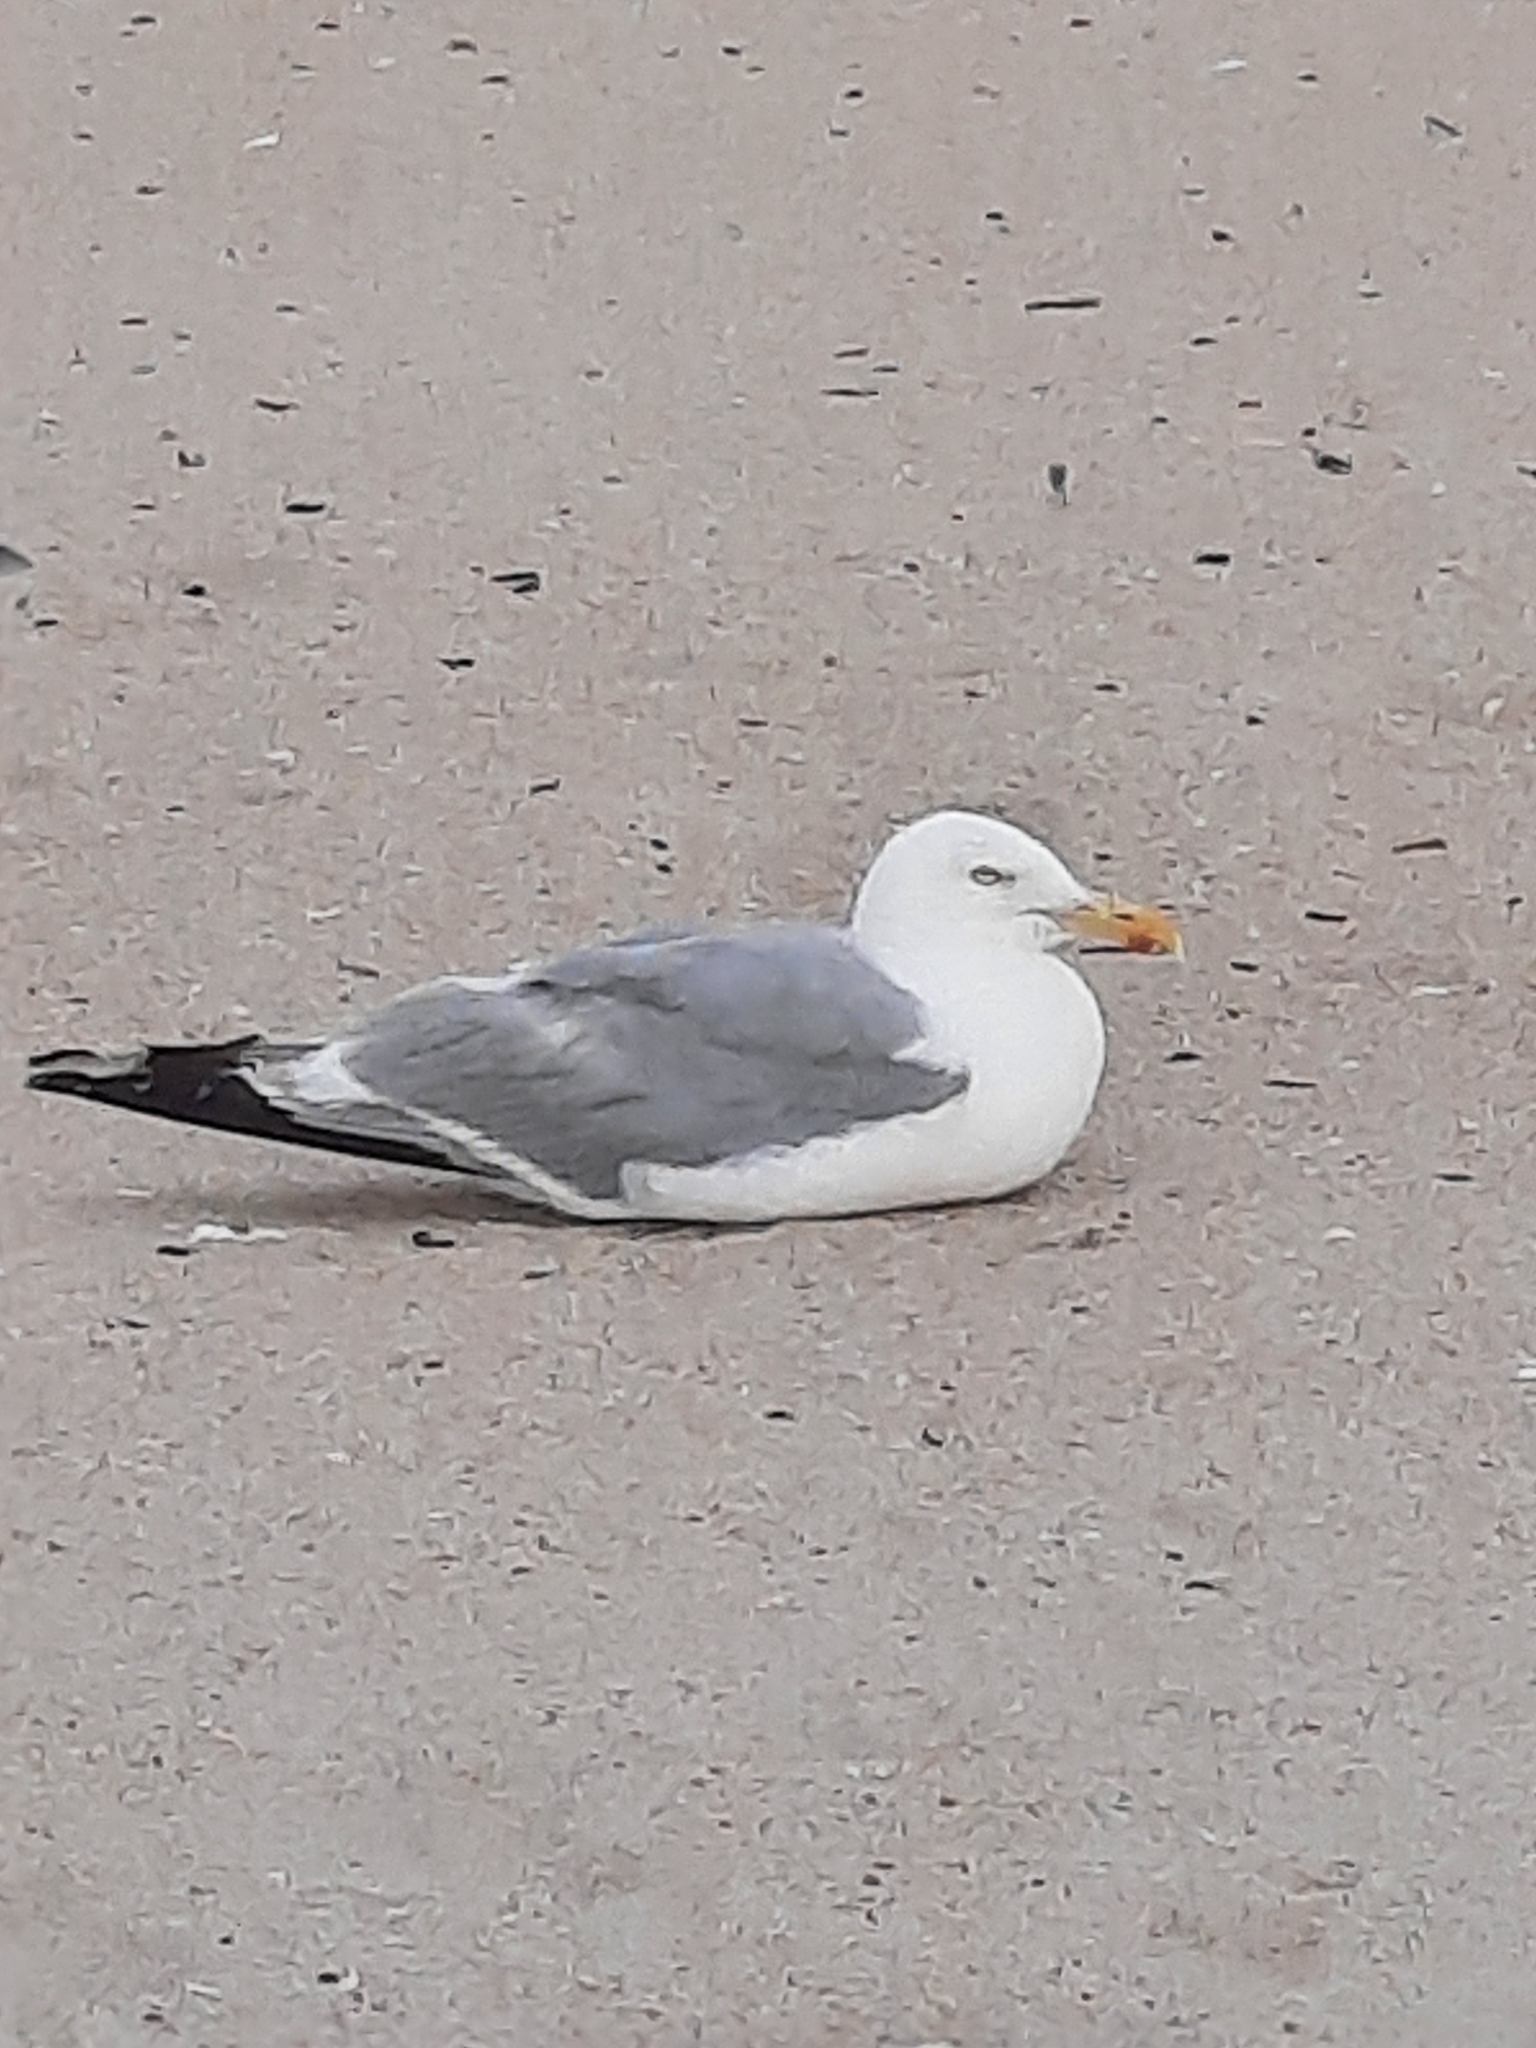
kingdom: Animalia
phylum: Chordata
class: Aves
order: Charadriiformes
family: Laridae
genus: Larus
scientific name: Larus argentatus
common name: Herring gull
